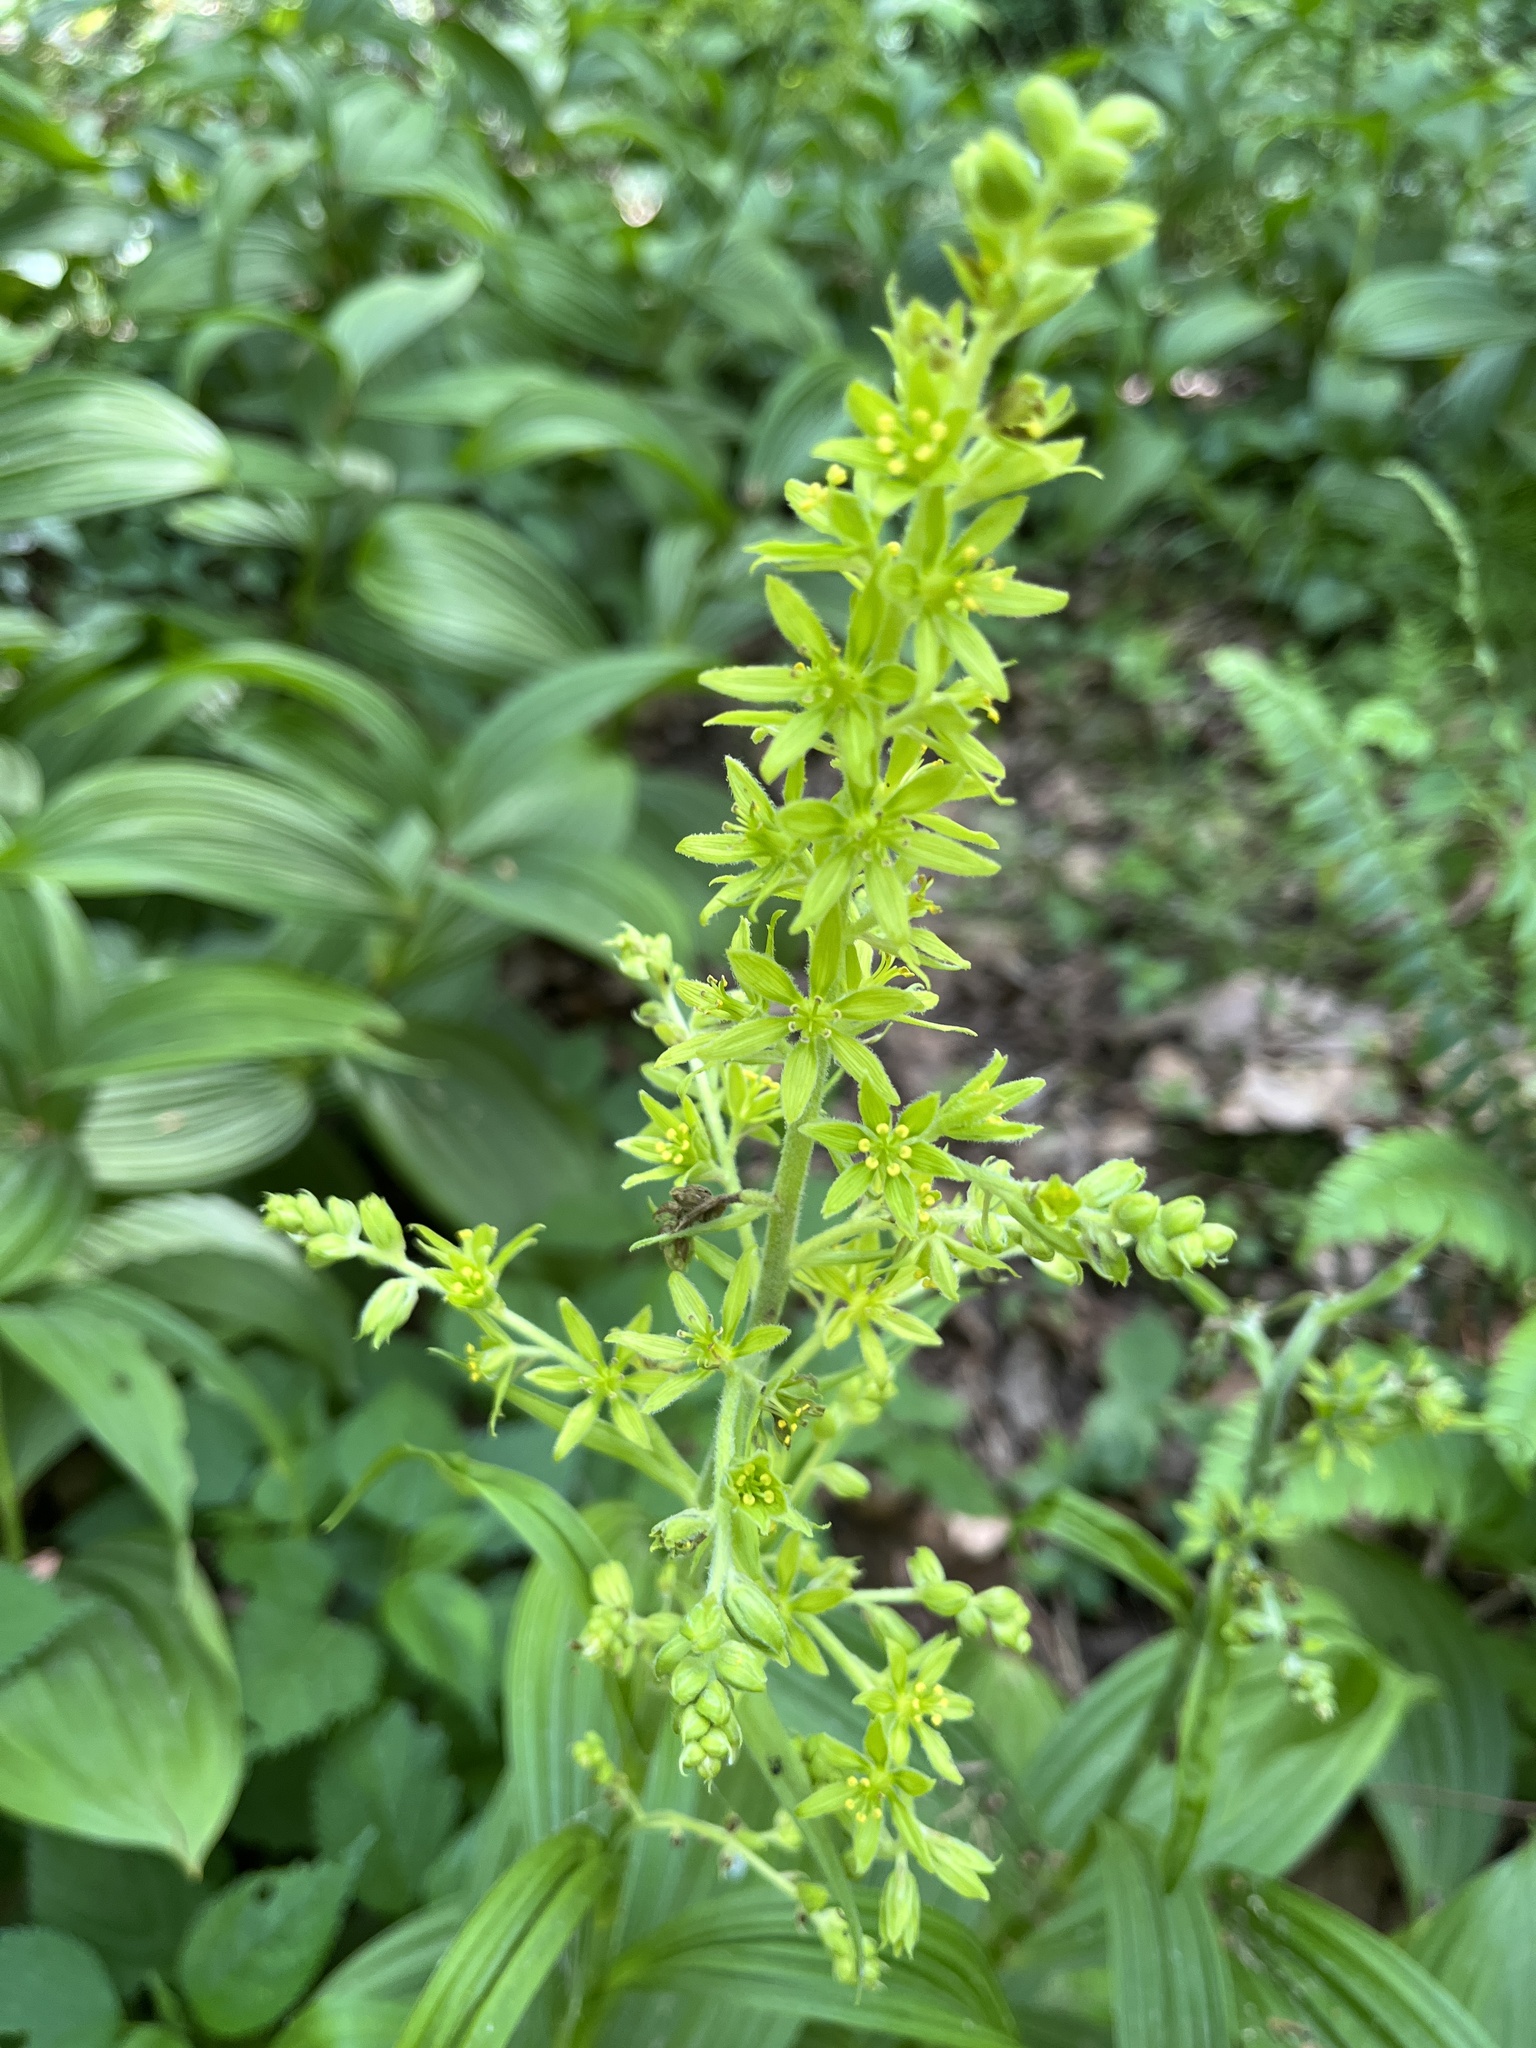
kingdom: Plantae
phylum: Tracheophyta
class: Liliopsida
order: Liliales
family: Melanthiaceae
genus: Veratrum
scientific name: Veratrum viride
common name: American false hellebore
